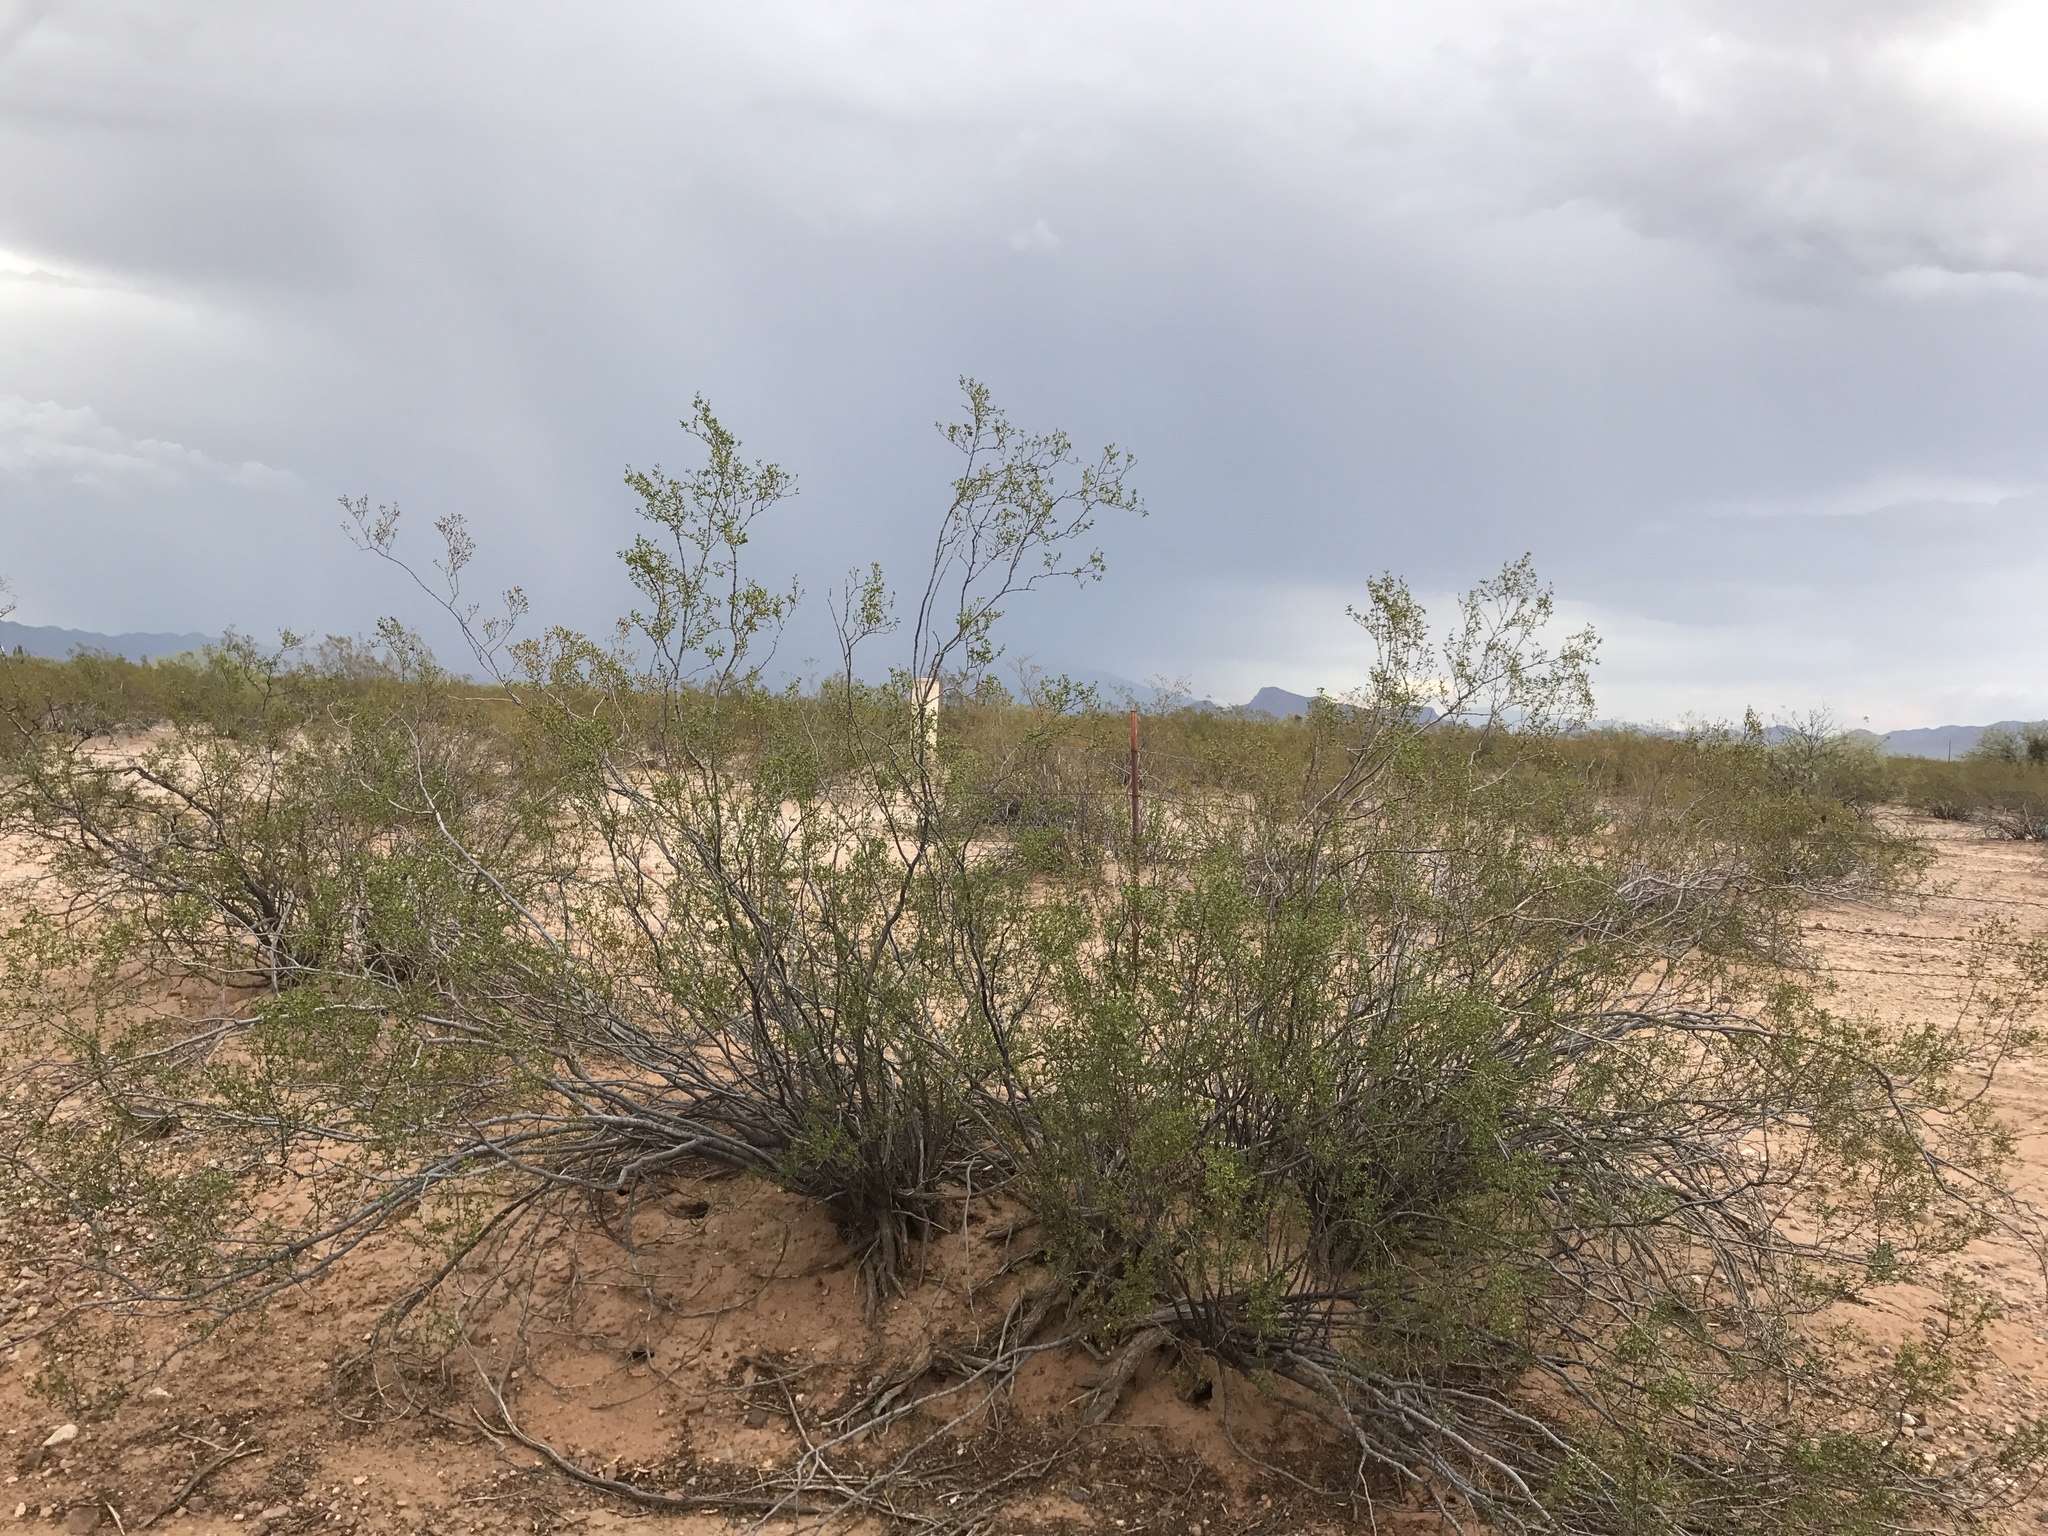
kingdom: Plantae
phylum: Tracheophyta
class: Magnoliopsida
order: Zygophyllales
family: Zygophyllaceae
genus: Larrea
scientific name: Larrea tridentata
